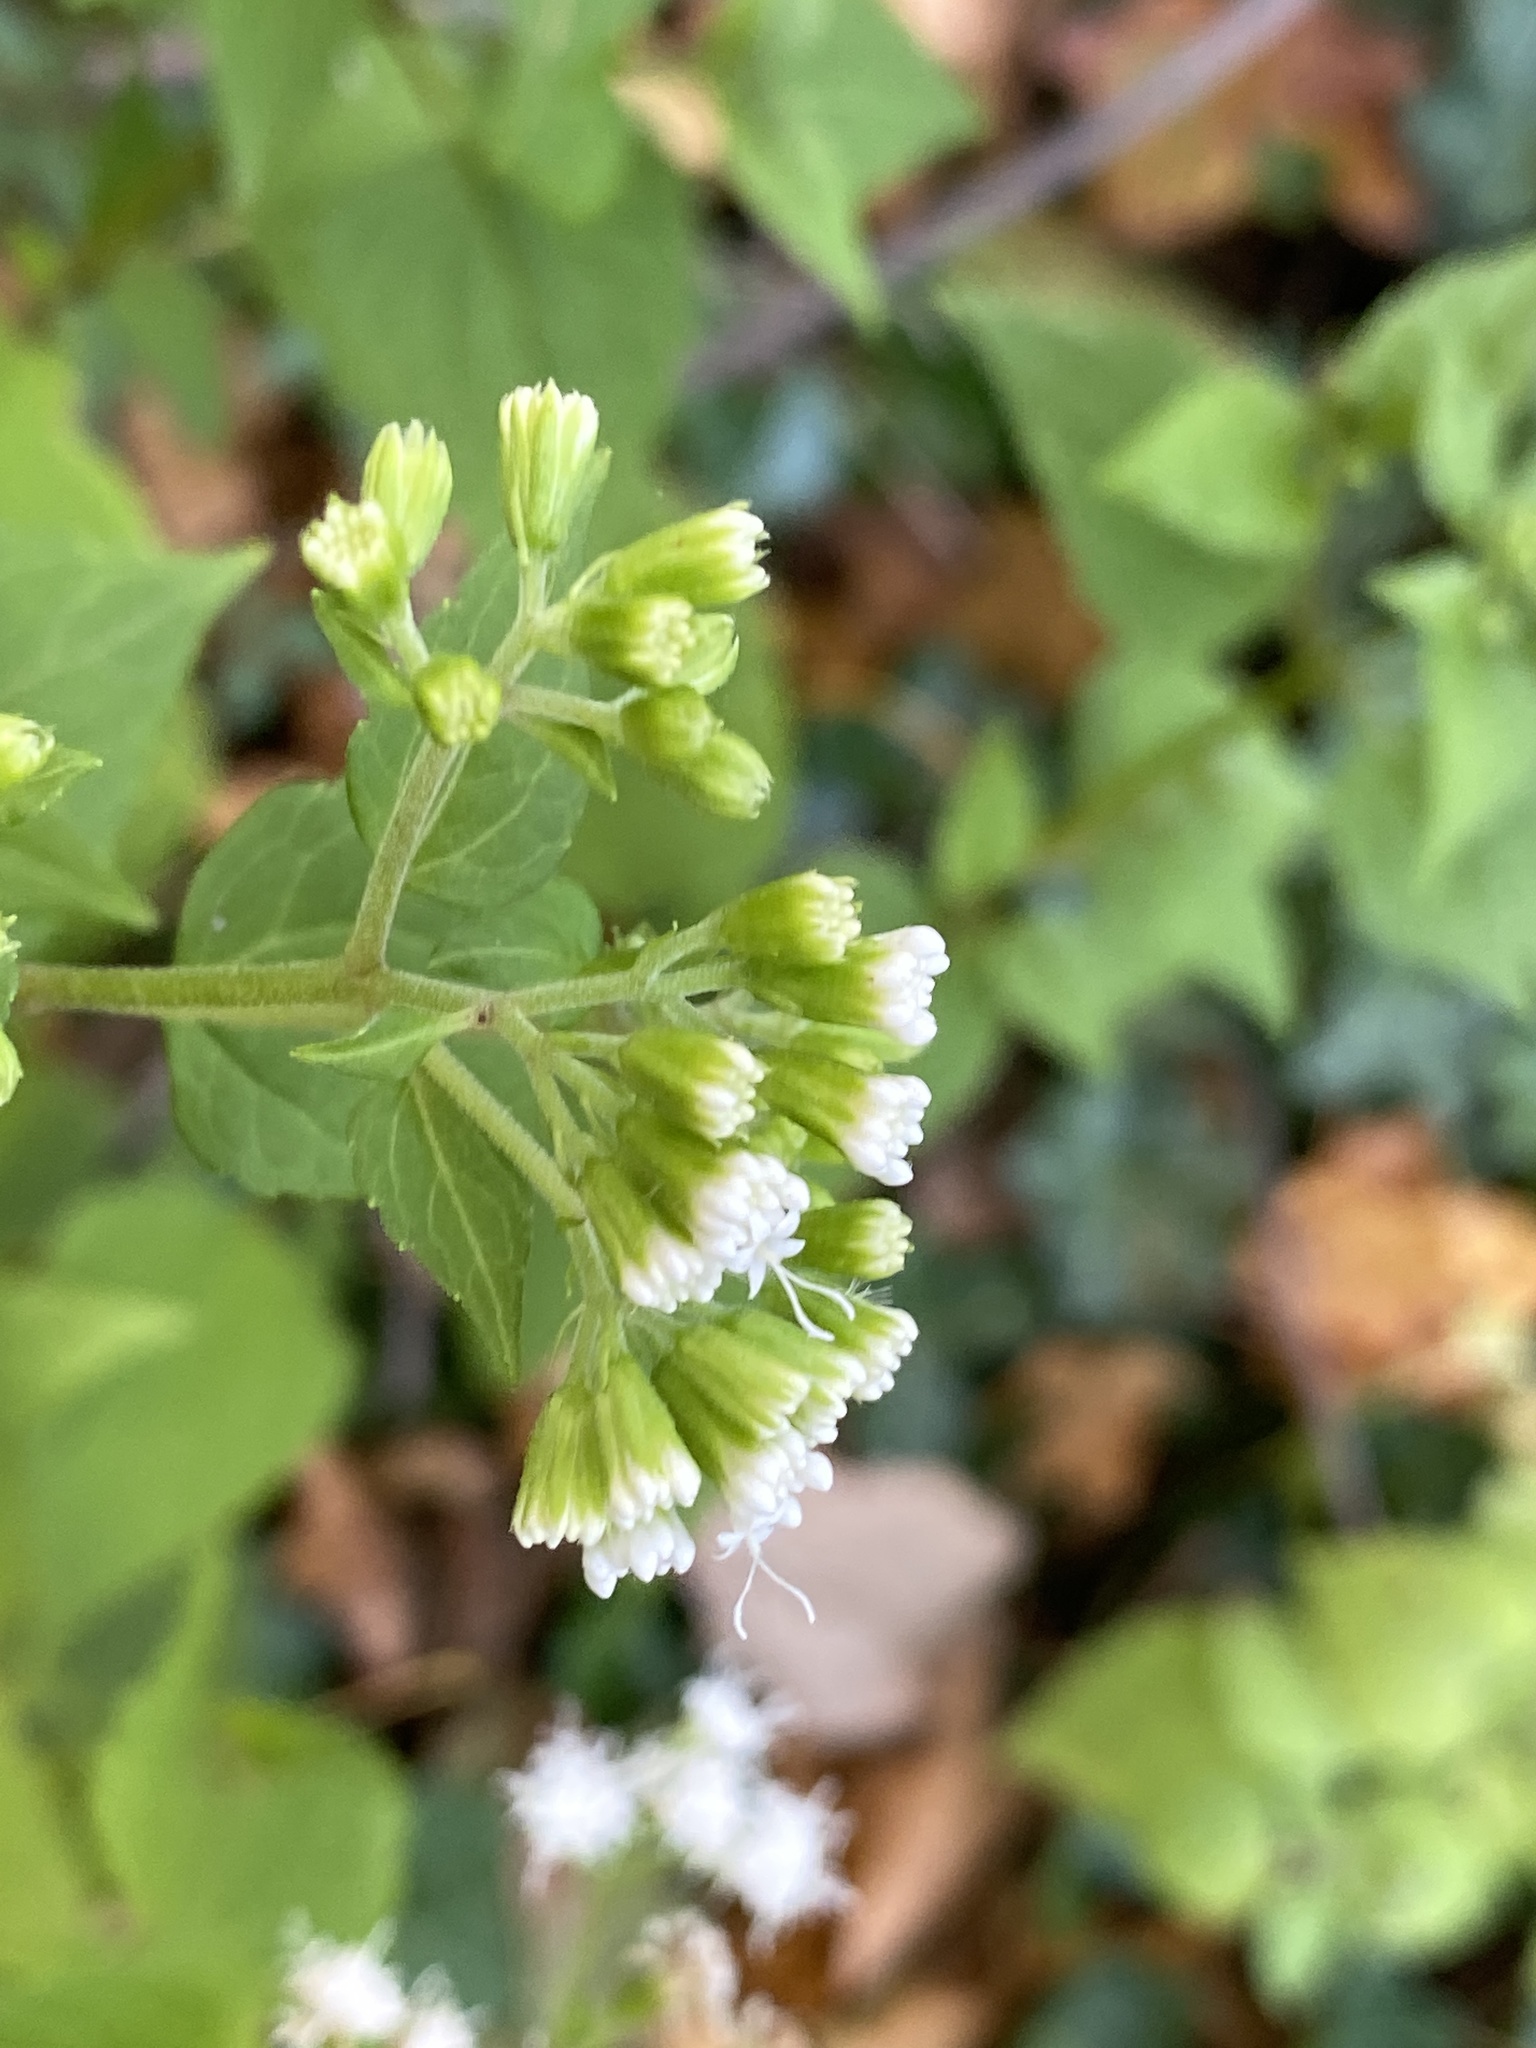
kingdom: Plantae
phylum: Tracheophyta
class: Magnoliopsida
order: Asterales
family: Asteraceae
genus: Ageratina
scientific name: Ageratina altissima
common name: White snakeroot
